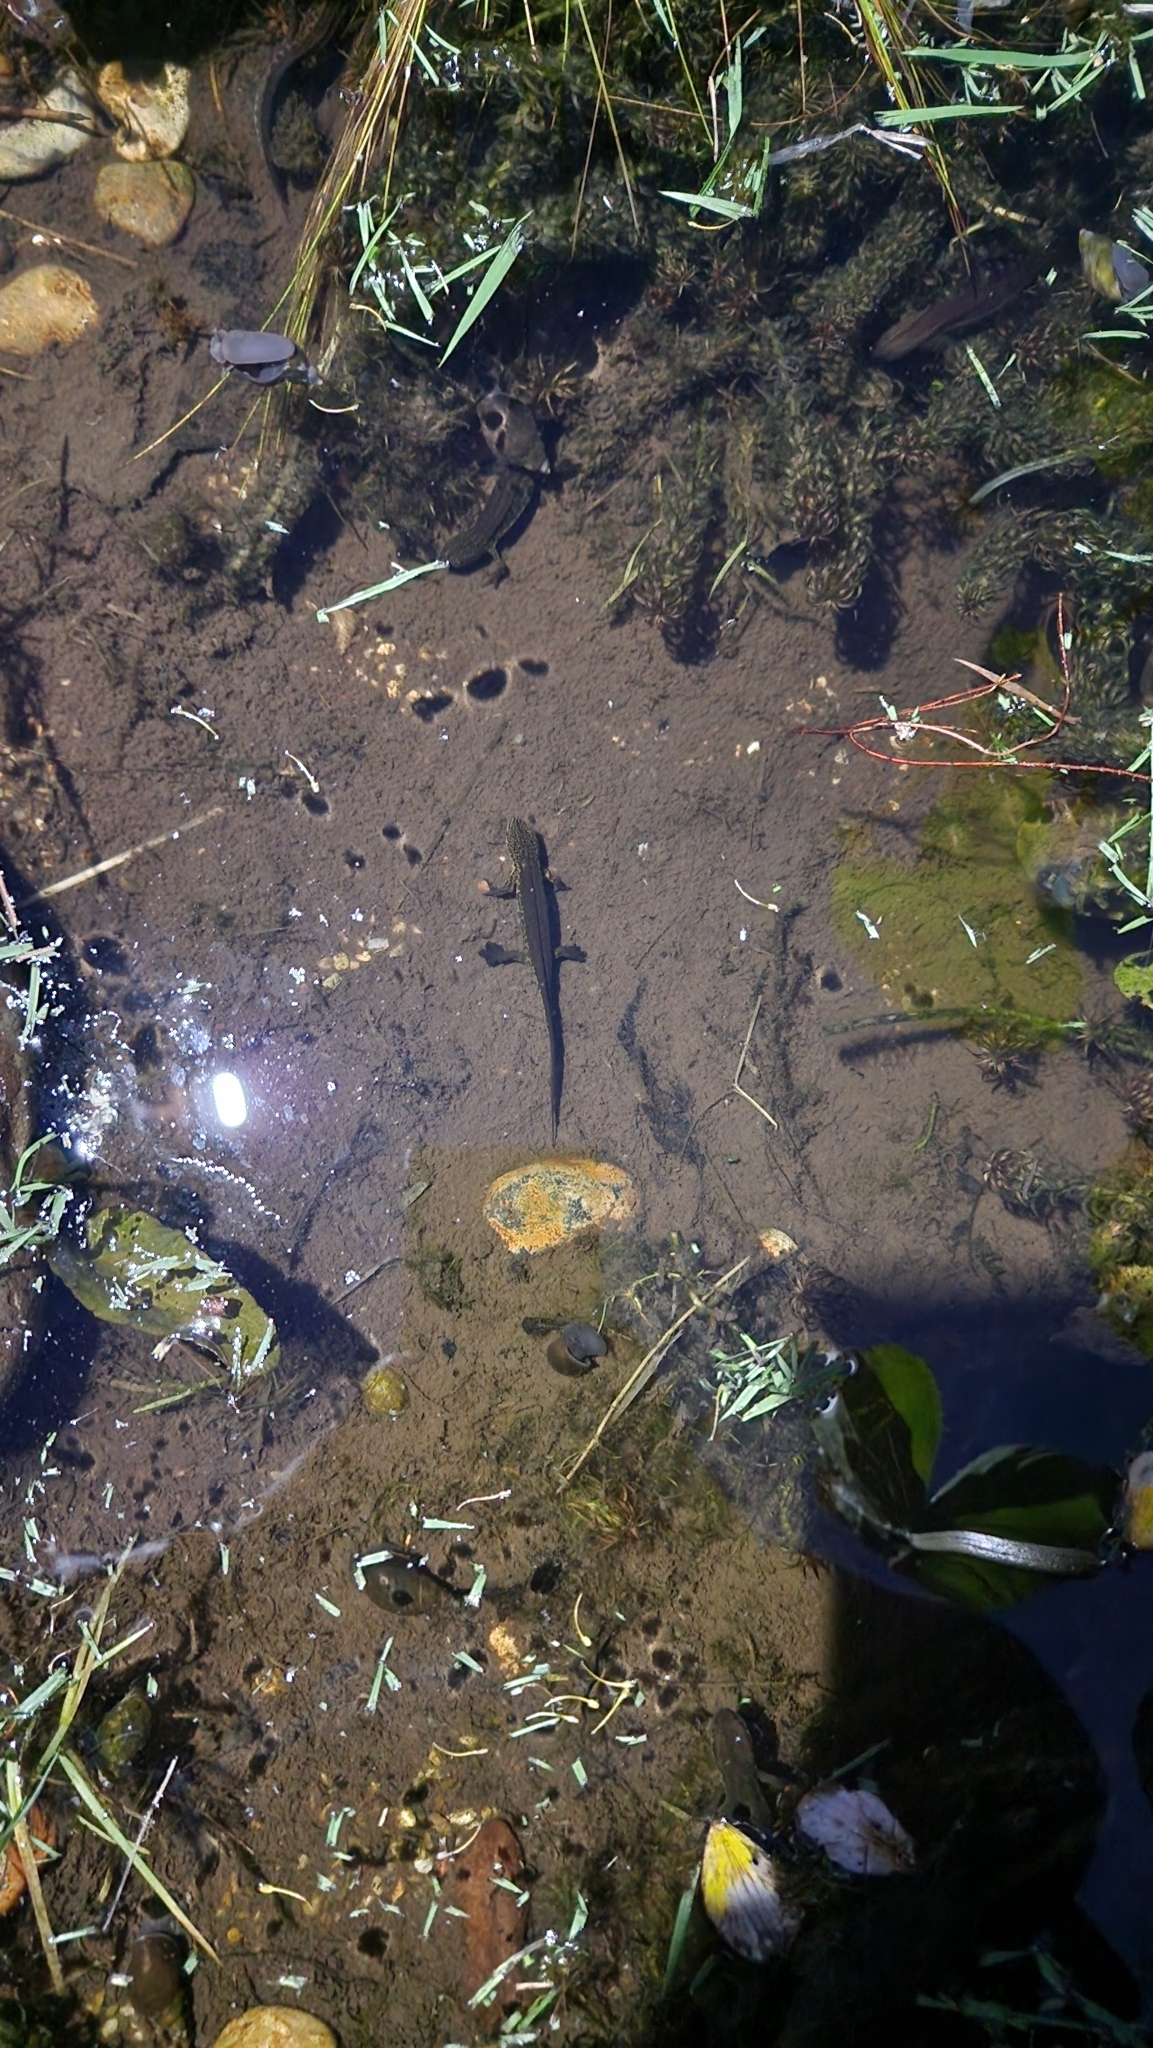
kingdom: Animalia
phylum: Chordata
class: Amphibia
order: Caudata
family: Salamandridae
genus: Lissotriton
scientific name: Lissotriton helveticus
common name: Palmate newt
